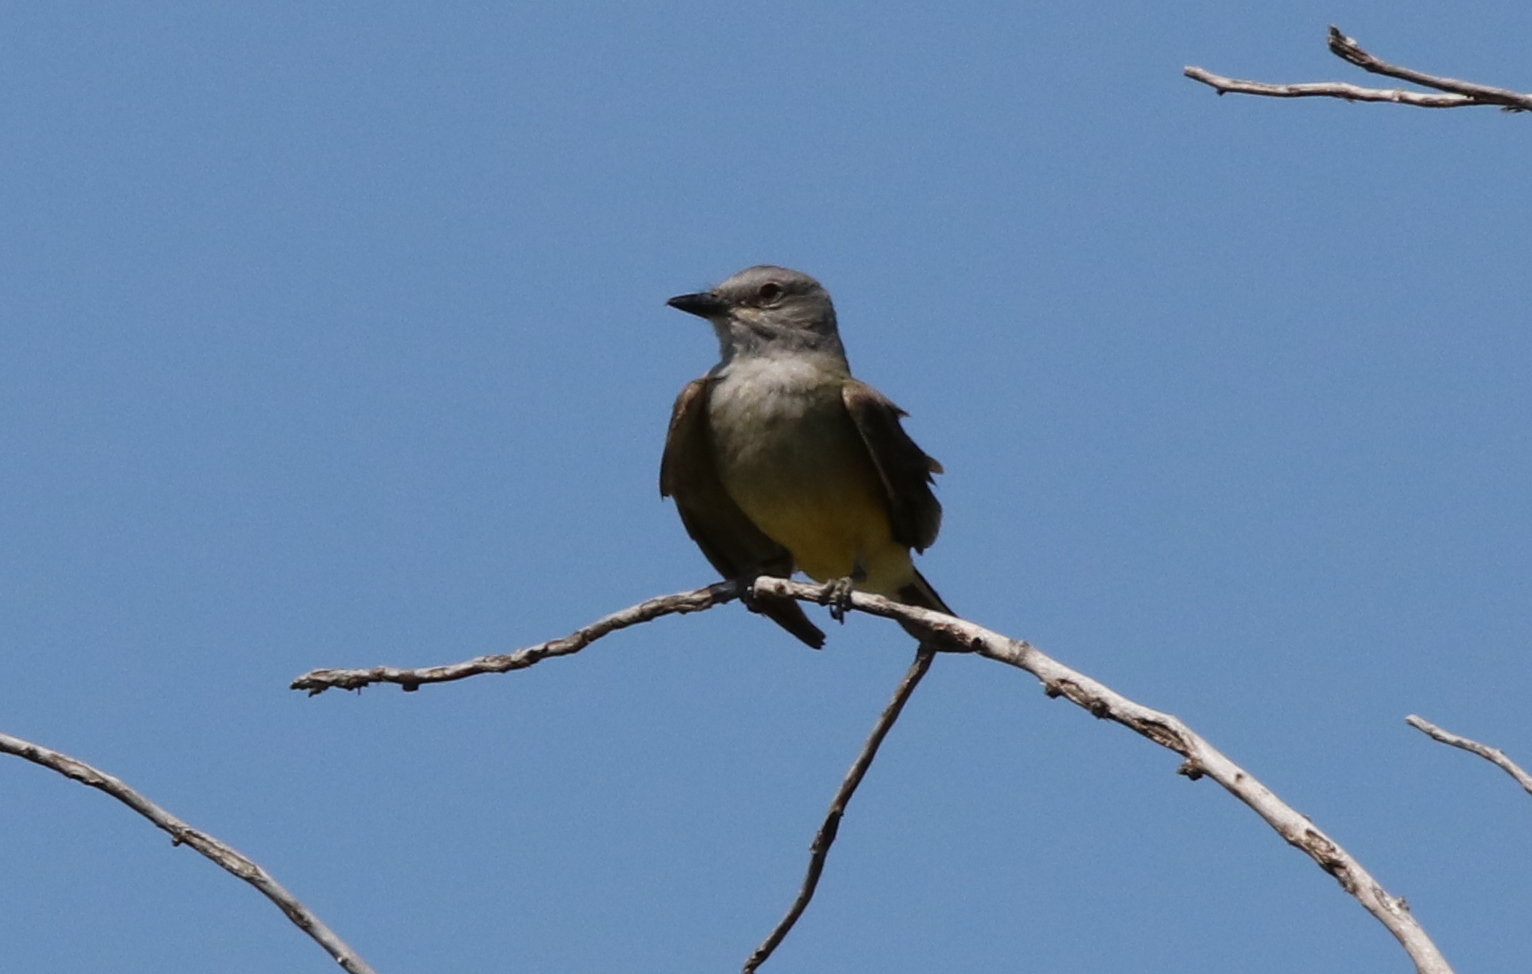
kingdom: Animalia
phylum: Chordata
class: Aves
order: Passeriformes
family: Tyrannidae
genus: Tyrannus
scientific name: Tyrannus verticalis
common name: Western kingbird
